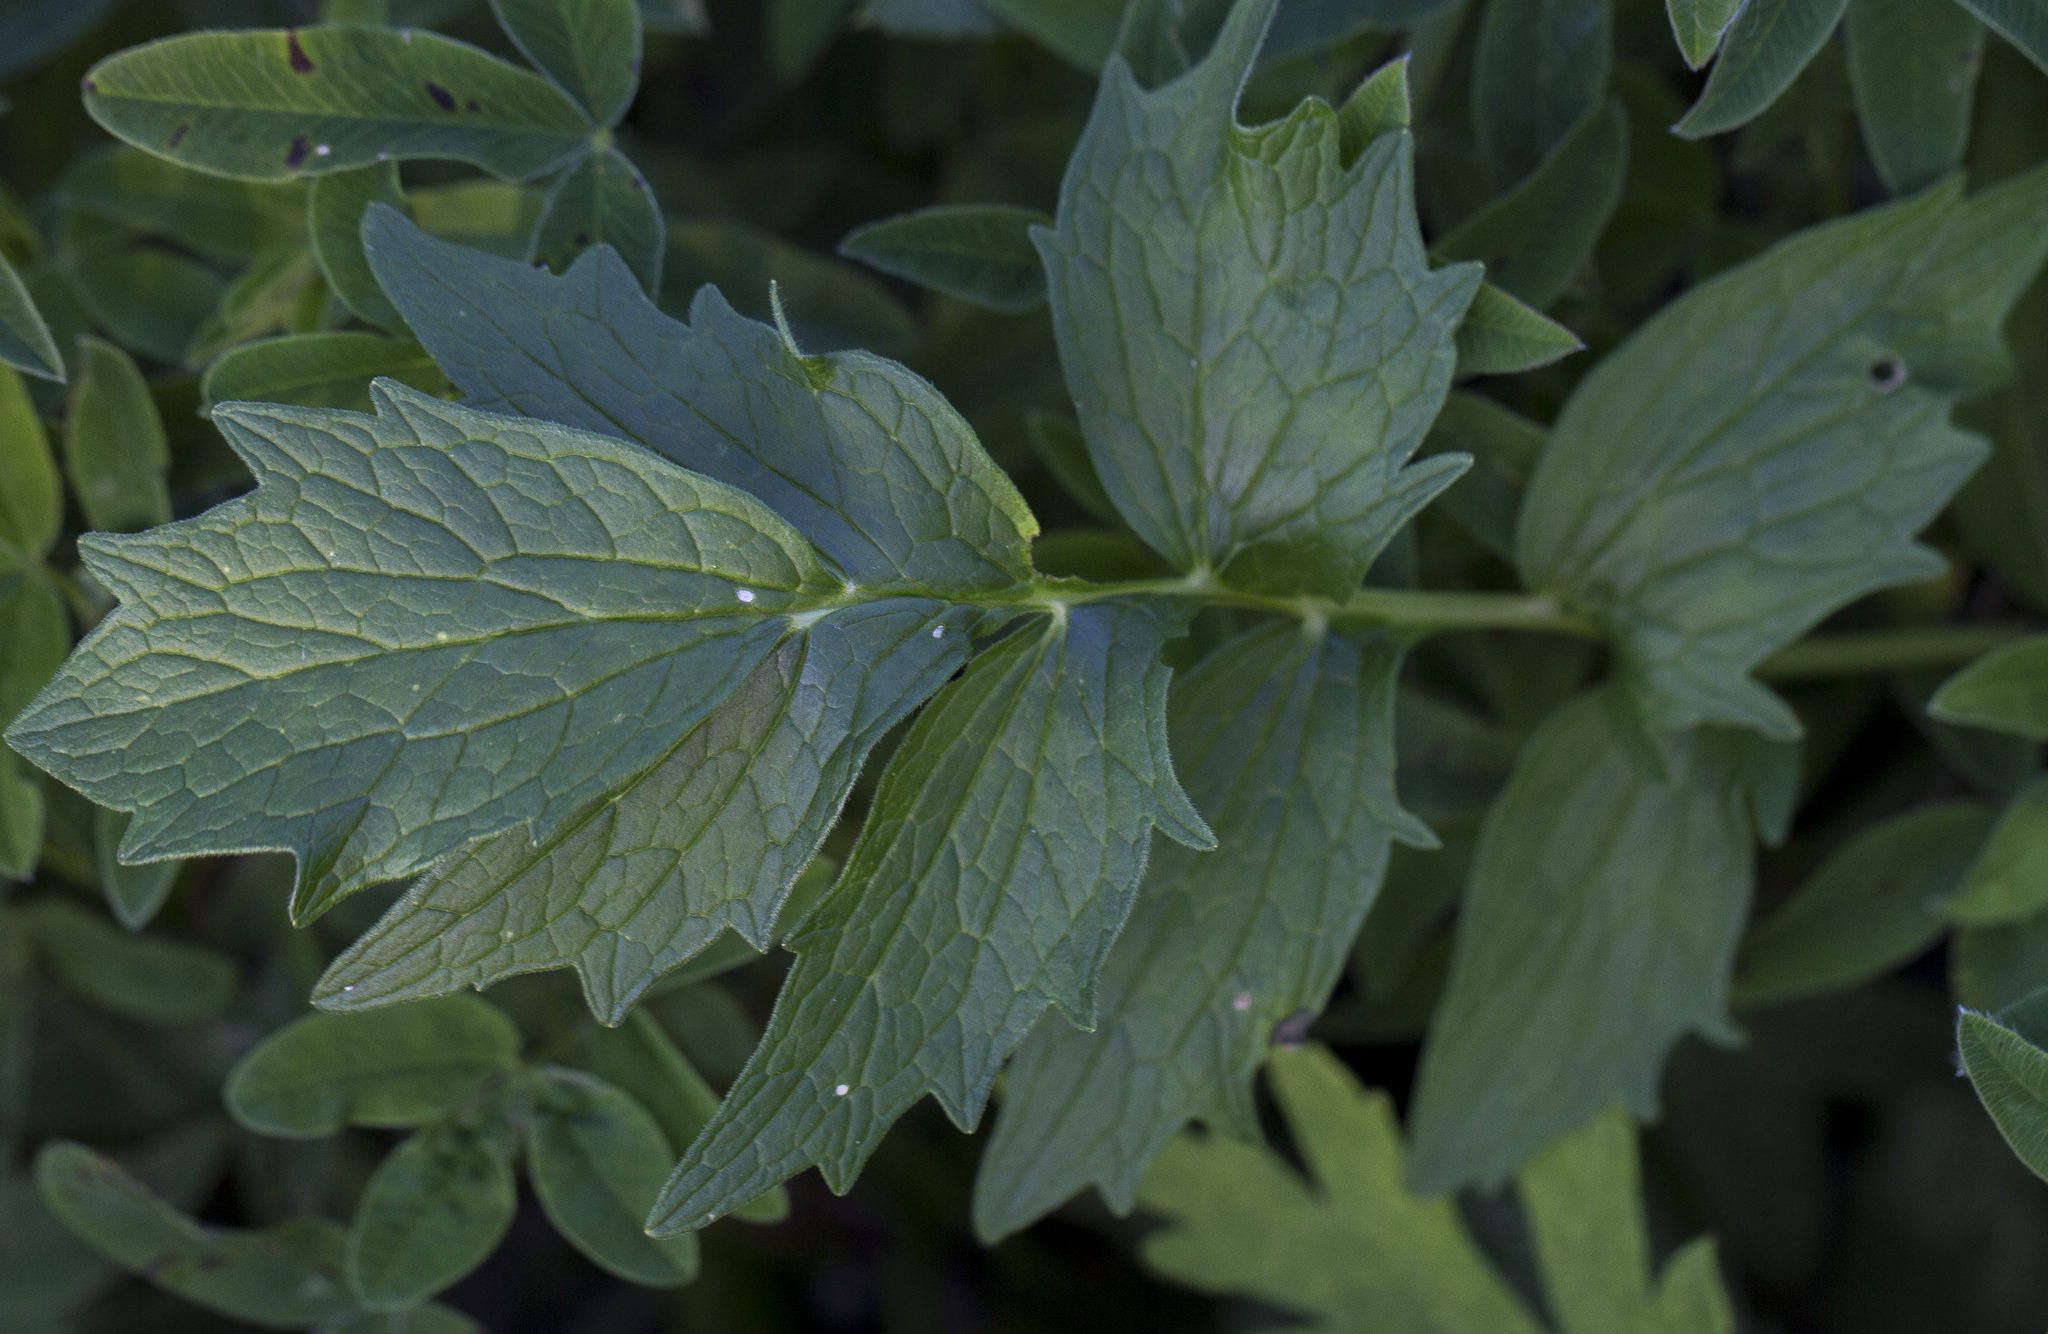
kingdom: Plantae
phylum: Tracheophyta
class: Magnoliopsida
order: Dipsacales
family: Caprifoliaceae
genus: Valeriana
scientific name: Valeriana officinalis
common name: Common valerian
